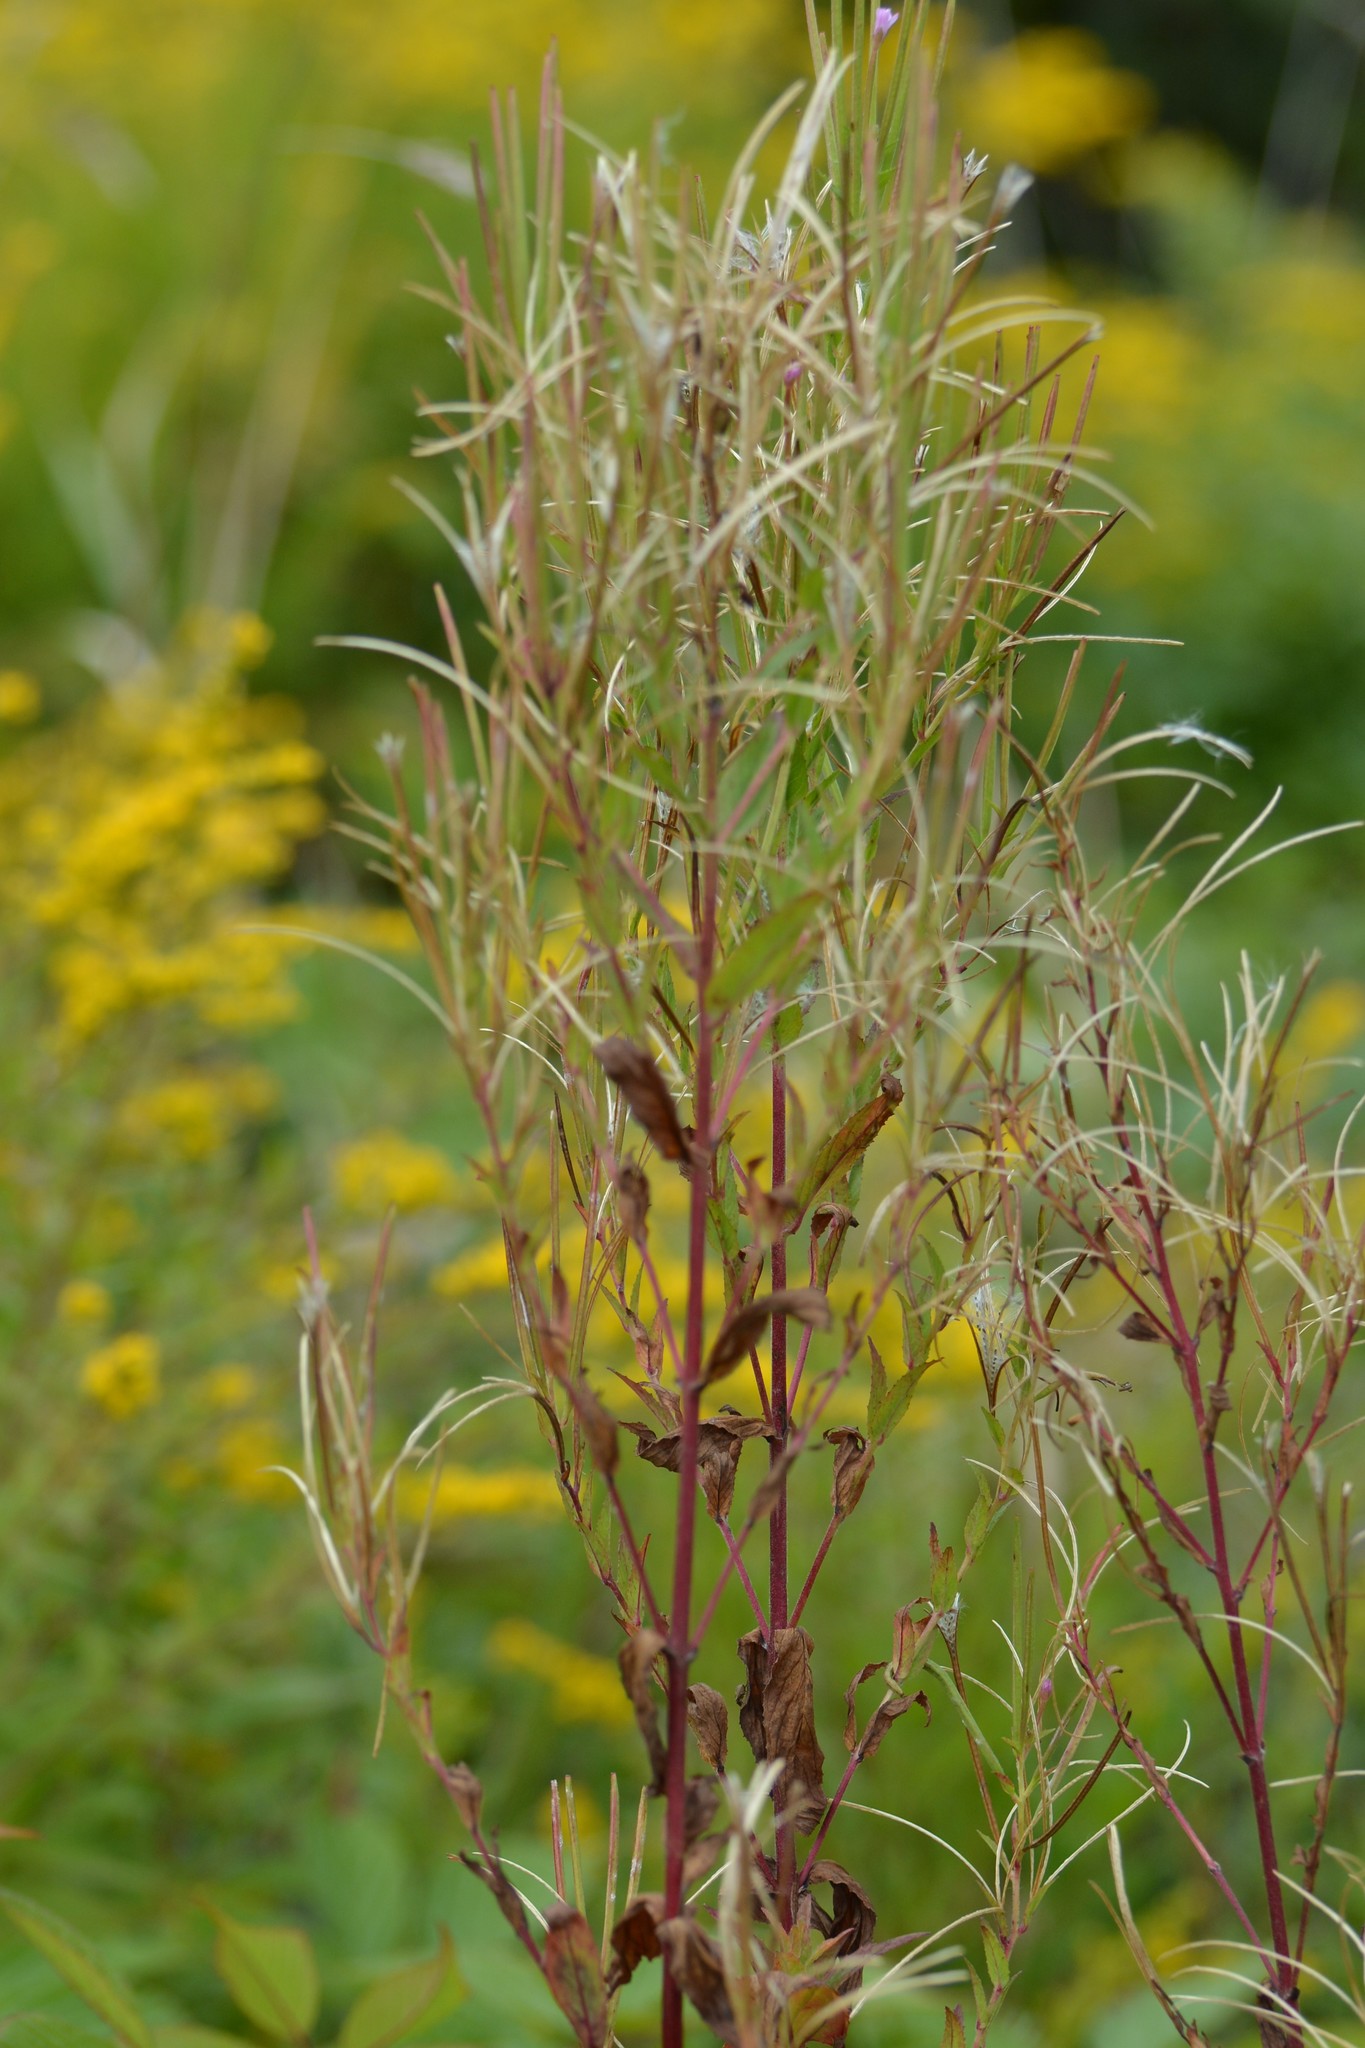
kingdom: Plantae
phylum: Tracheophyta
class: Magnoliopsida
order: Myrtales
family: Onagraceae
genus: Chamaenerion
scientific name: Chamaenerion angustifolium
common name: Fireweed
